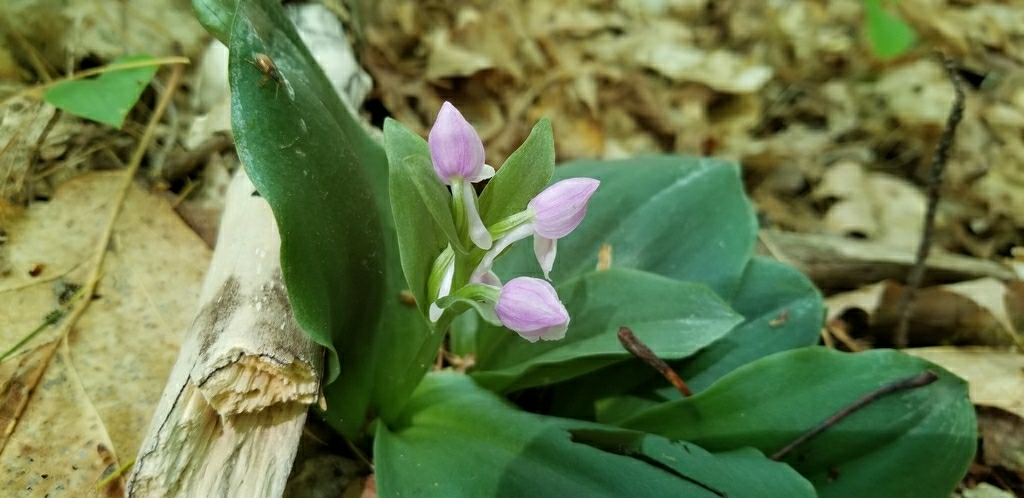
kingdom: Plantae
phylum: Tracheophyta
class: Liliopsida
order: Asparagales
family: Orchidaceae
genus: Galearis
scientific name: Galearis spectabilis
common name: Purple-hooded orchis
